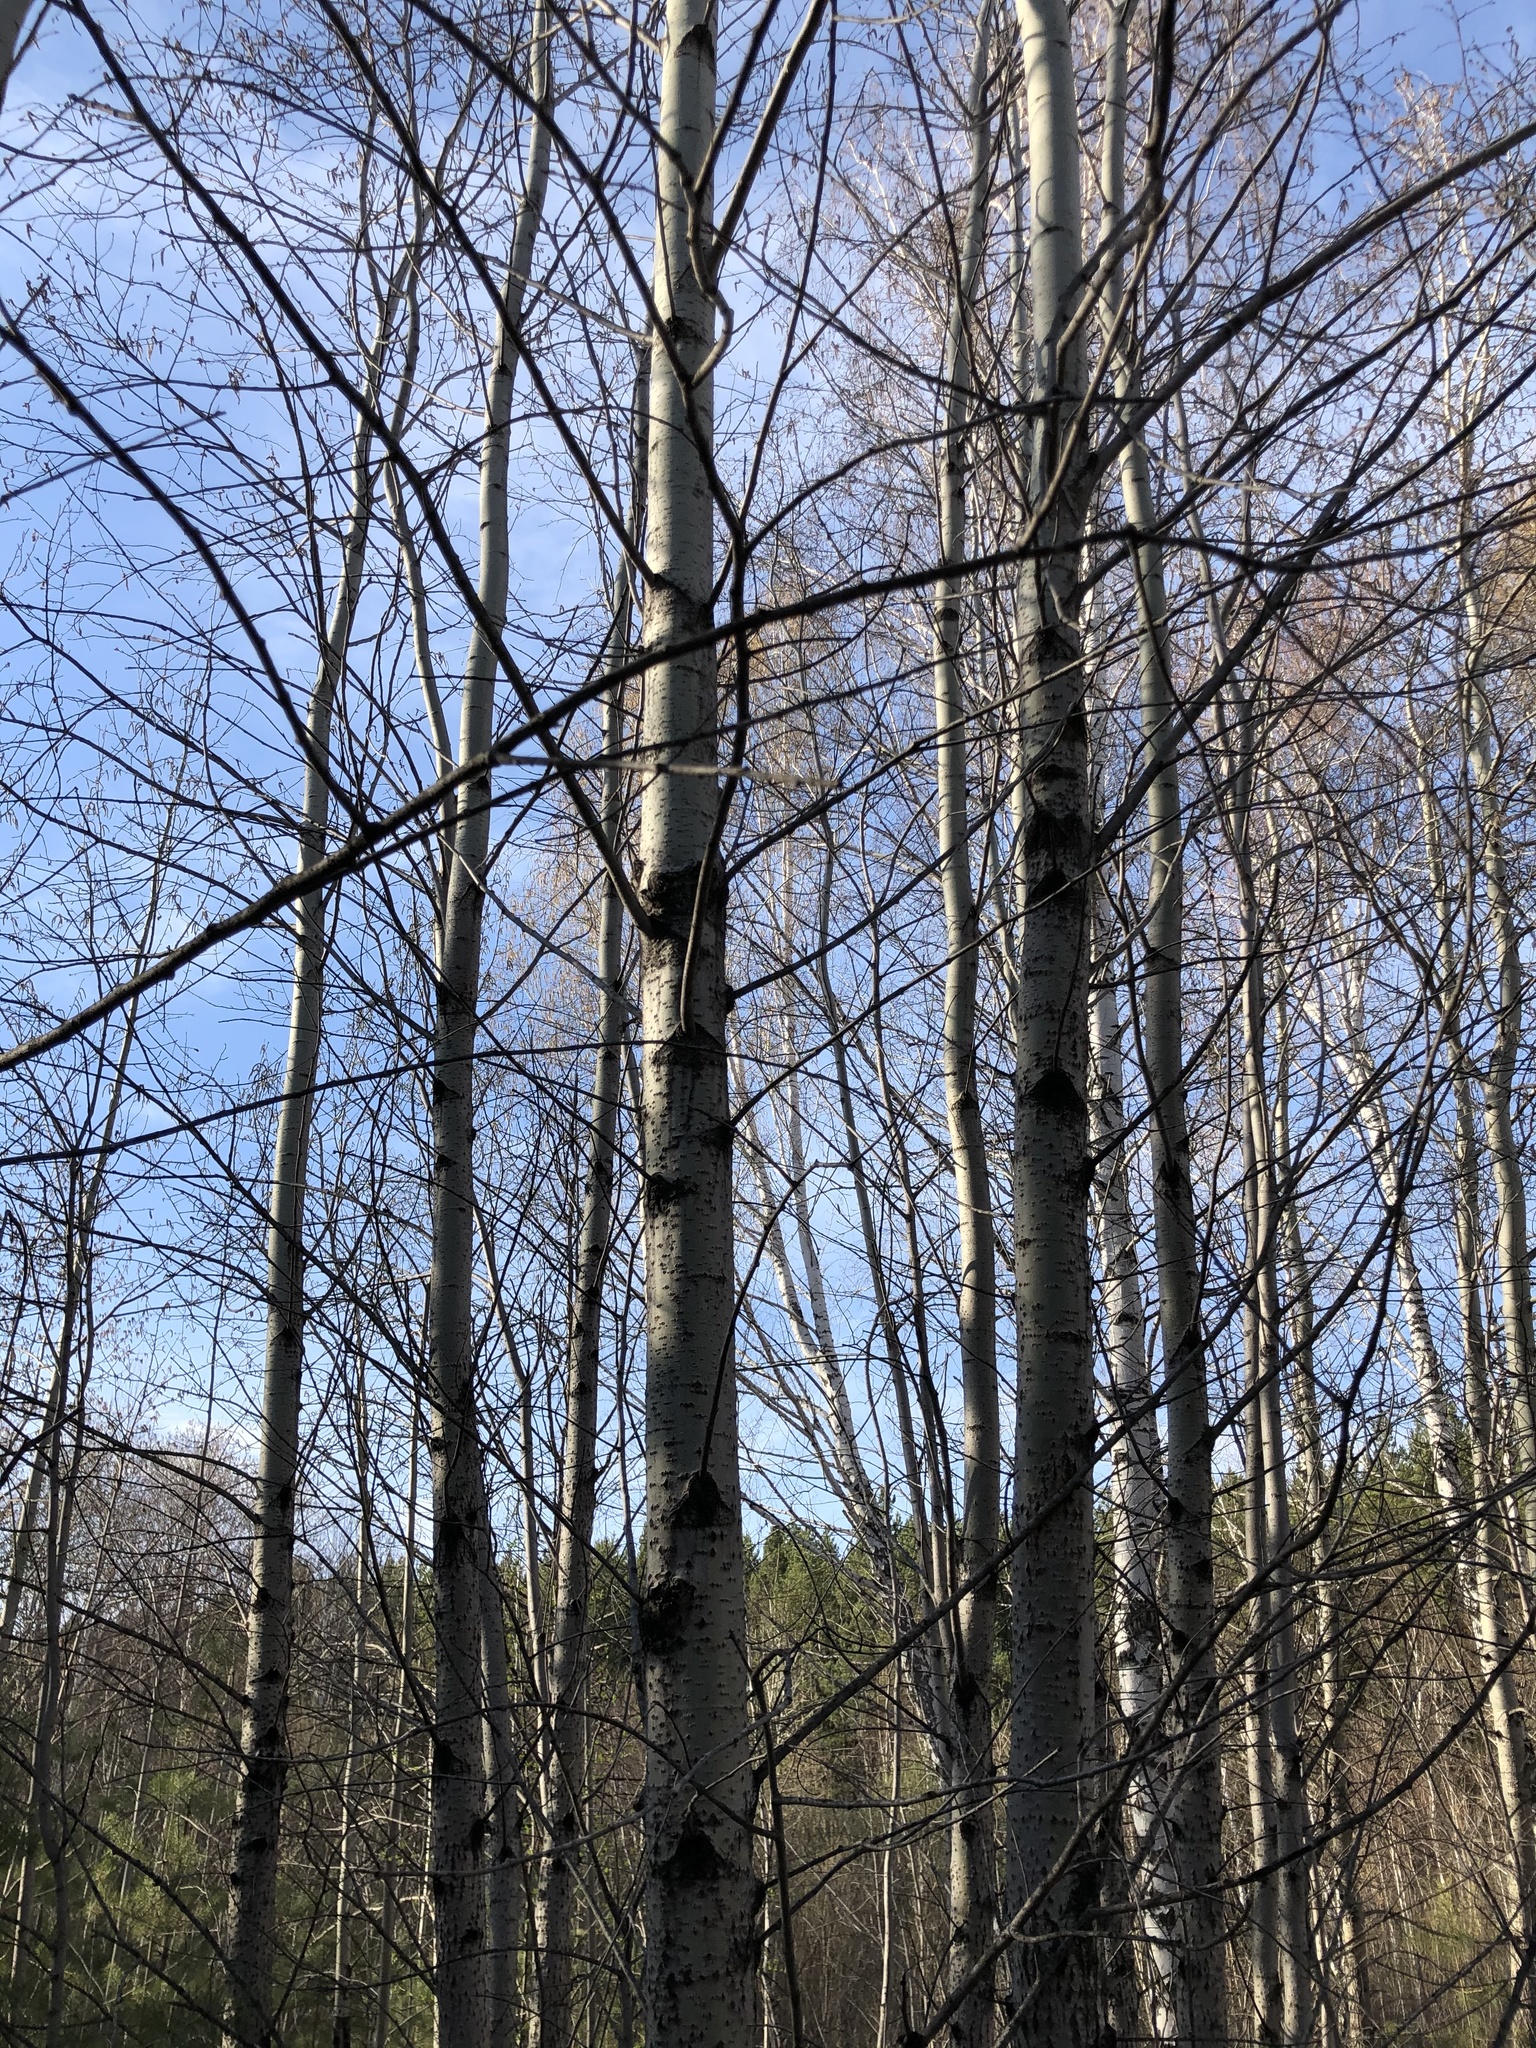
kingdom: Plantae
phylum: Tracheophyta
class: Magnoliopsida
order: Malpighiales
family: Salicaceae
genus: Populus
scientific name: Populus tremula
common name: European aspen
